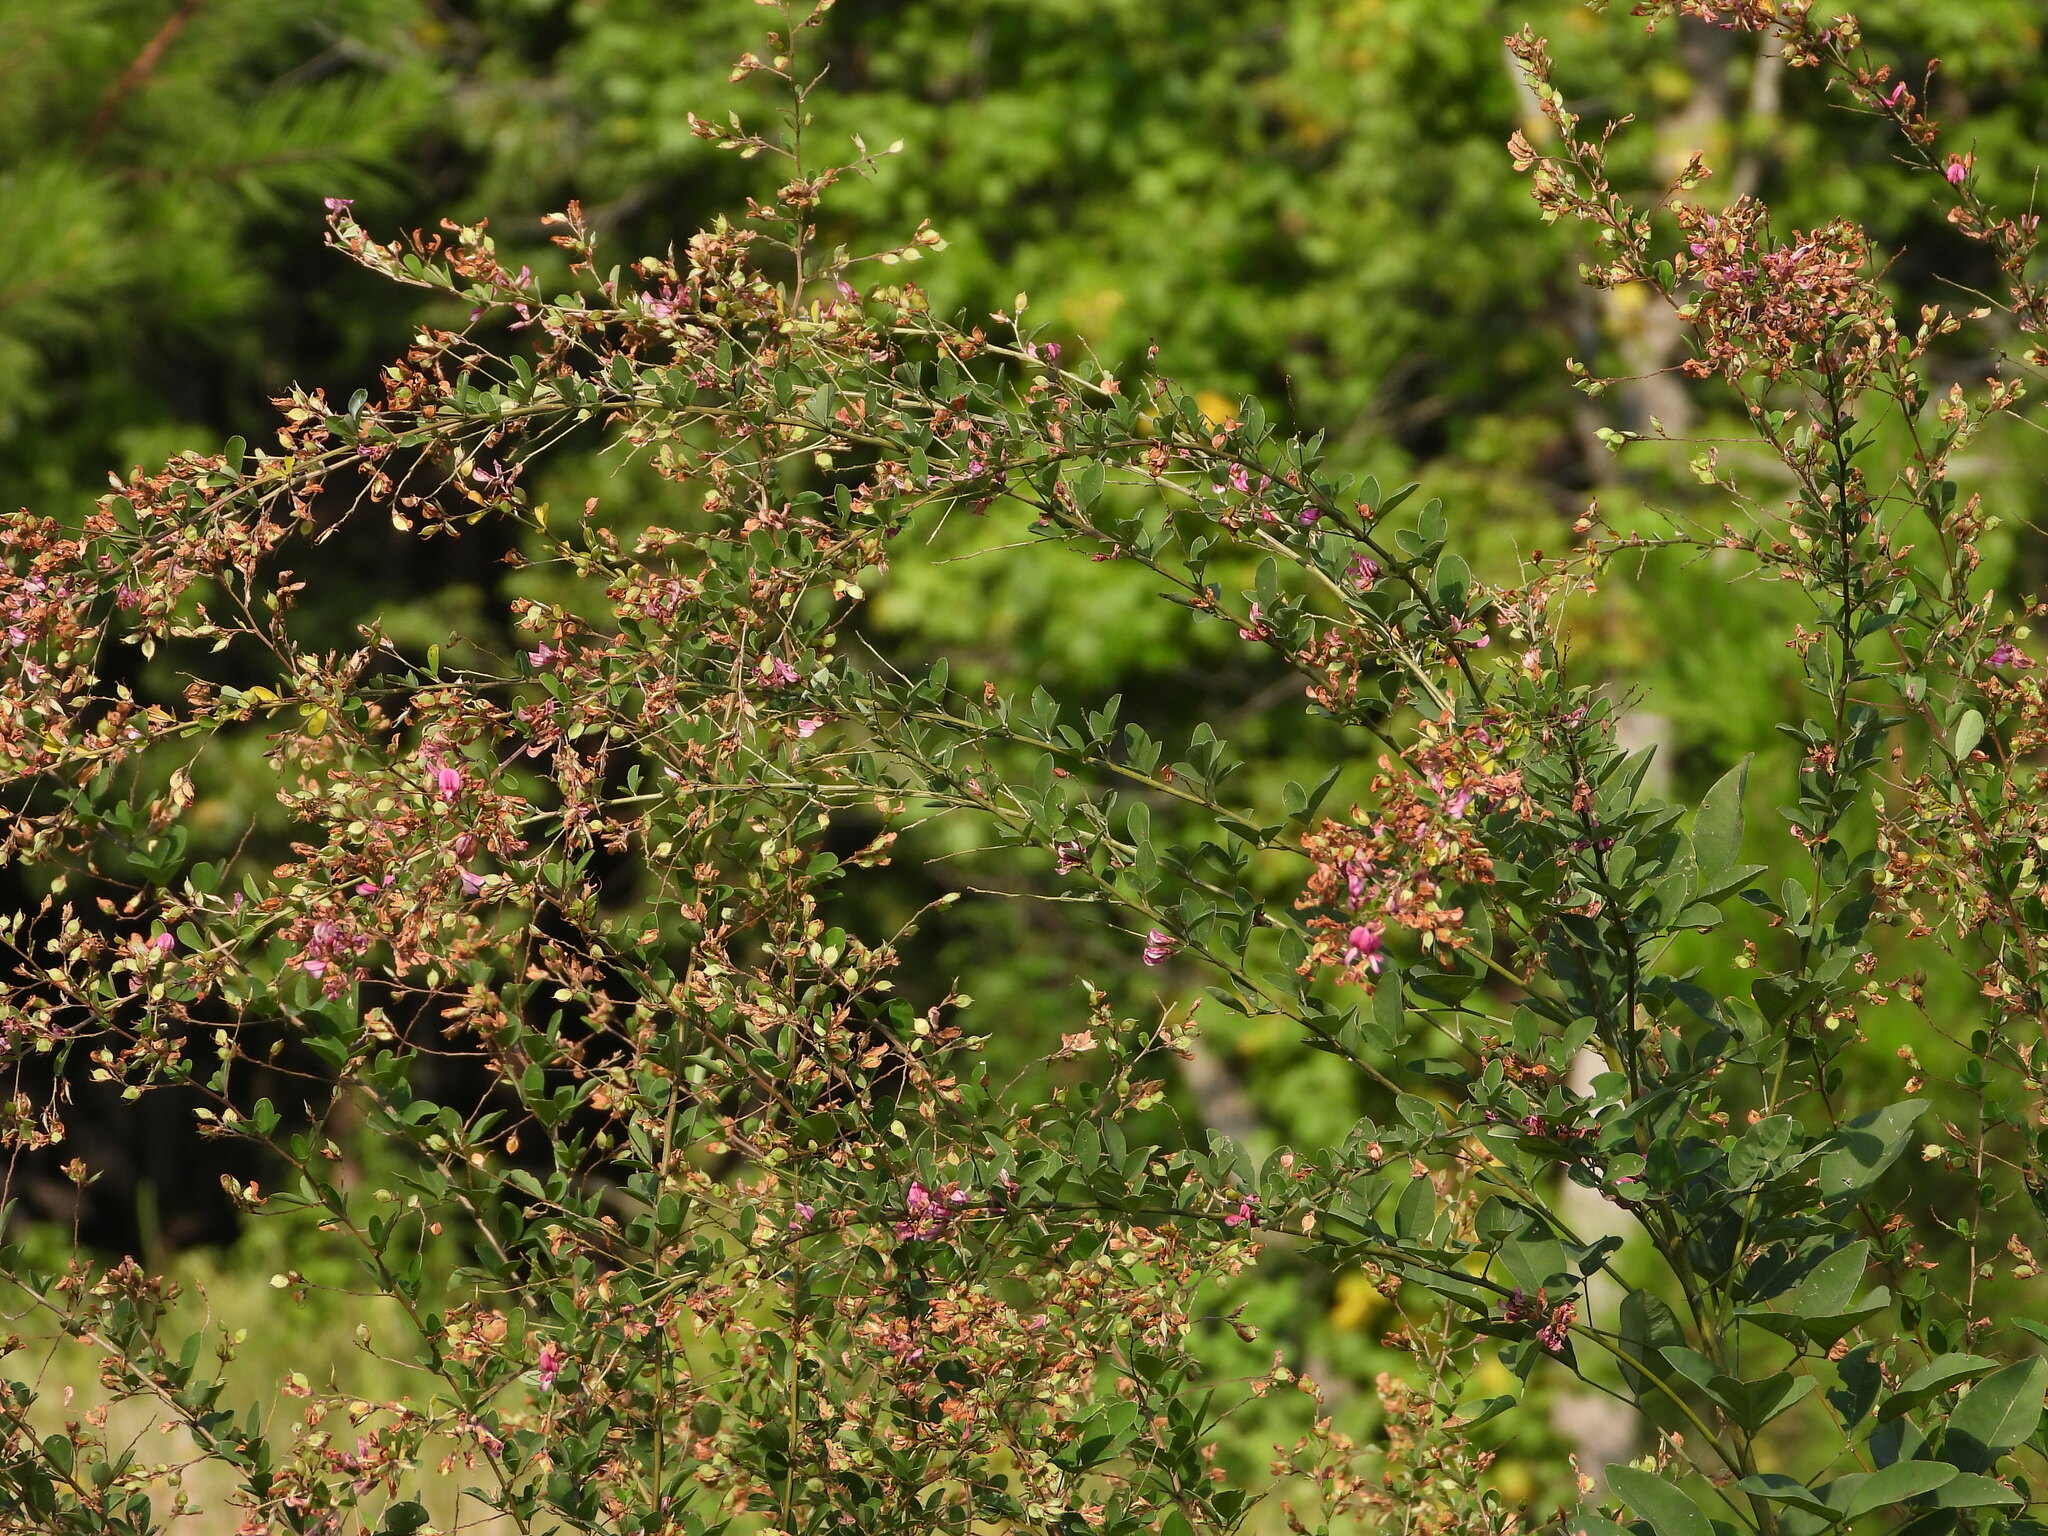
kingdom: Plantae
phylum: Tracheophyta
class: Magnoliopsida
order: Fabales
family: Fabaceae
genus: Lespedeza
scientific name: Lespedeza bicolor
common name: Shrub lespedeza
